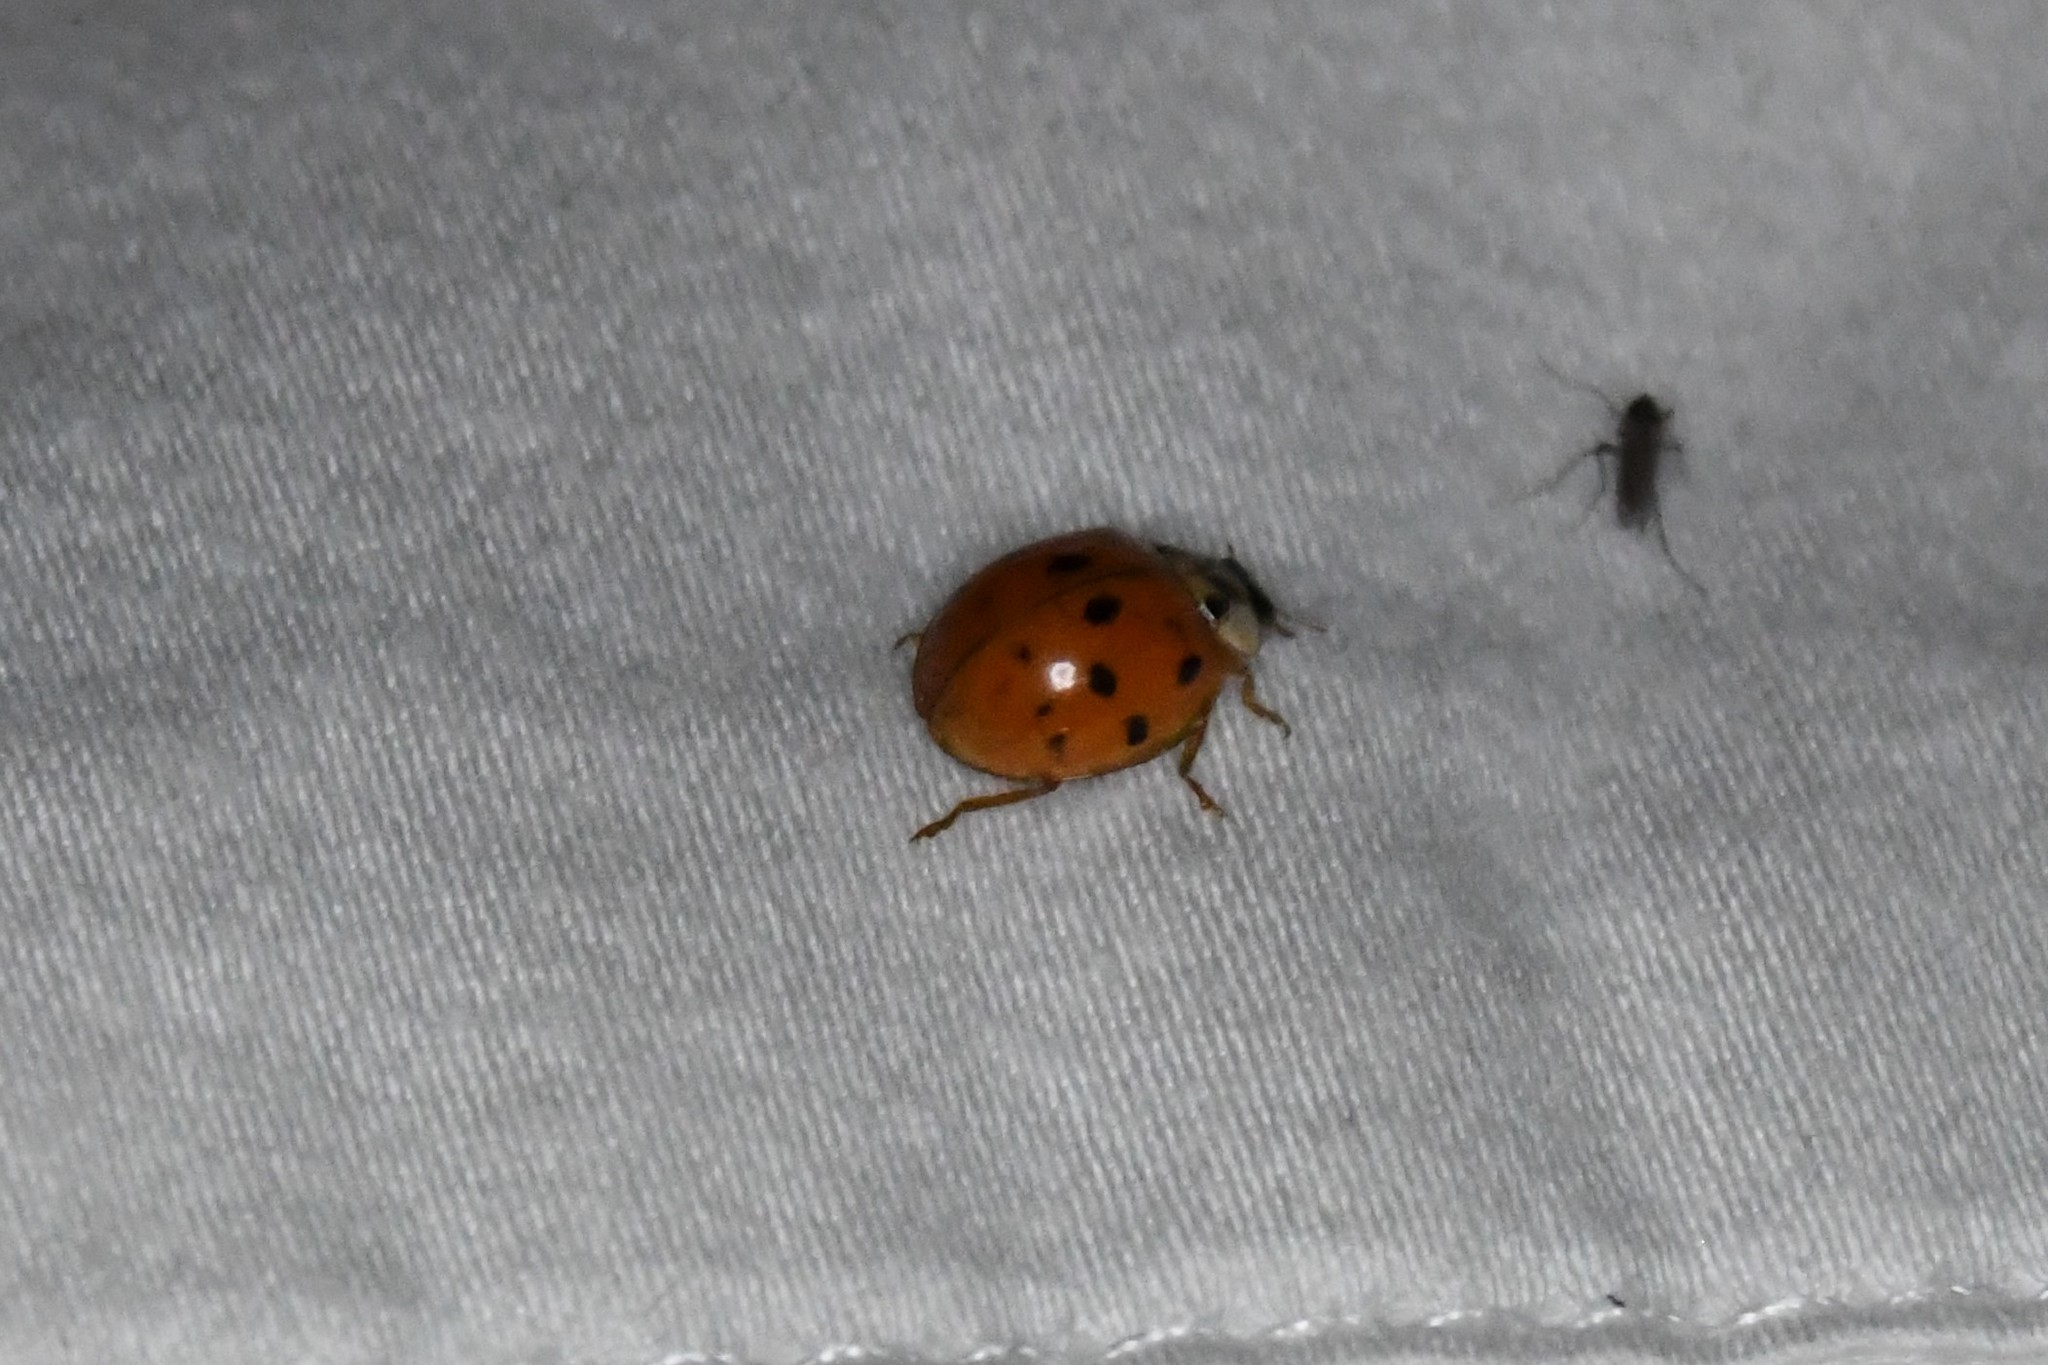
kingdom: Animalia
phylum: Arthropoda
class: Insecta
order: Coleoptera
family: Coccinellidae
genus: Harmonia
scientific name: Harmonia axyridis
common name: Harlequin ladybird
